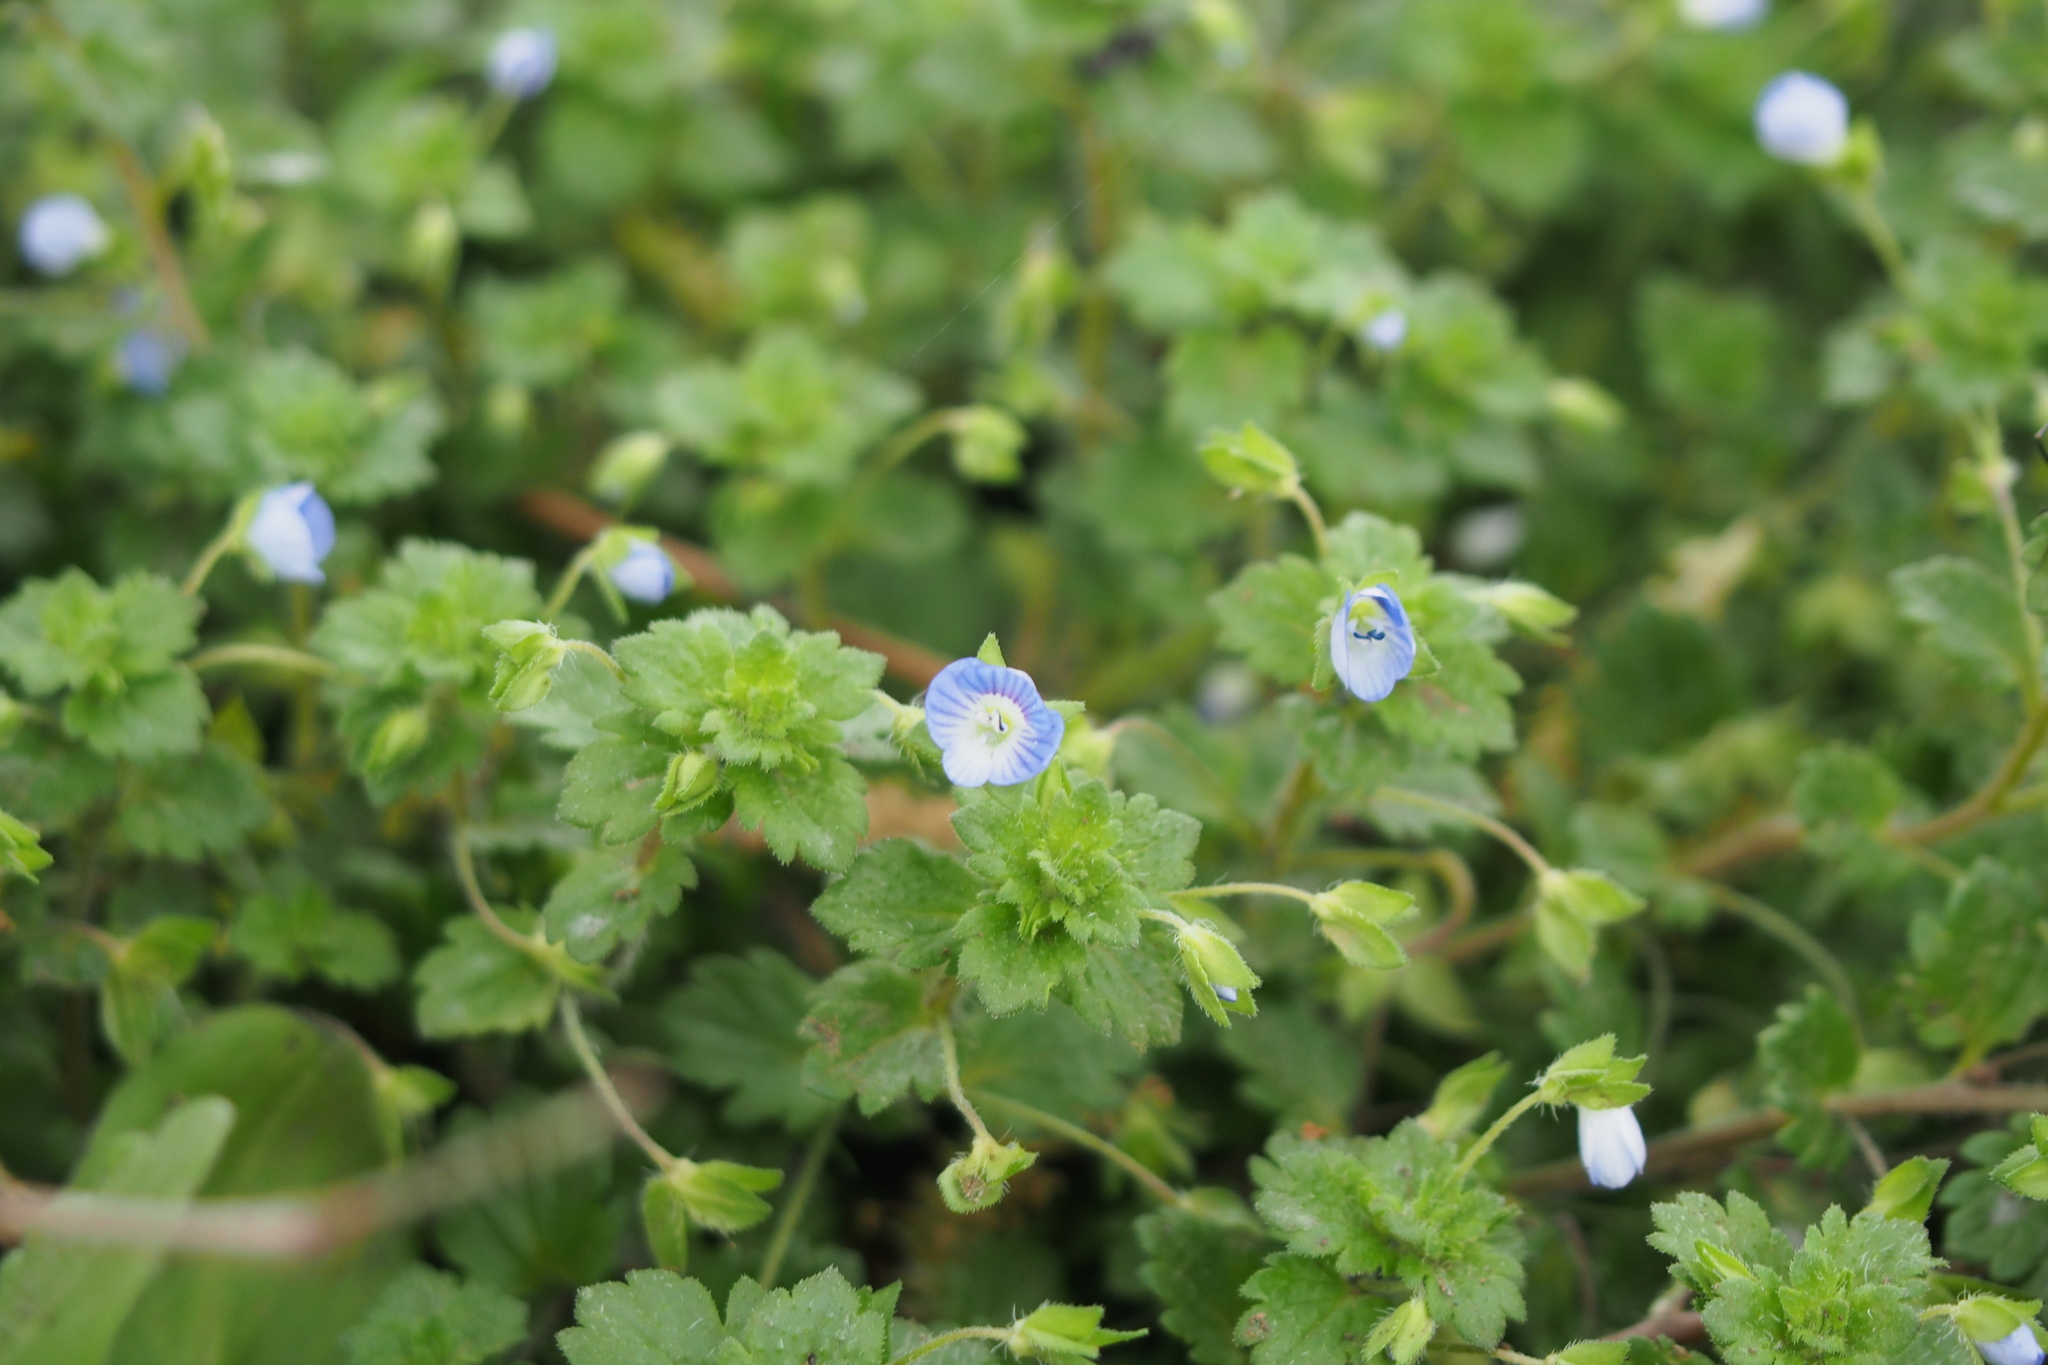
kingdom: Plantae
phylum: Tracheophyta
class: Magnoliopsida
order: Lamiales
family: Plantaginaceae
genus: Veronica
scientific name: Veronica persica
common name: Common field-speedwell
